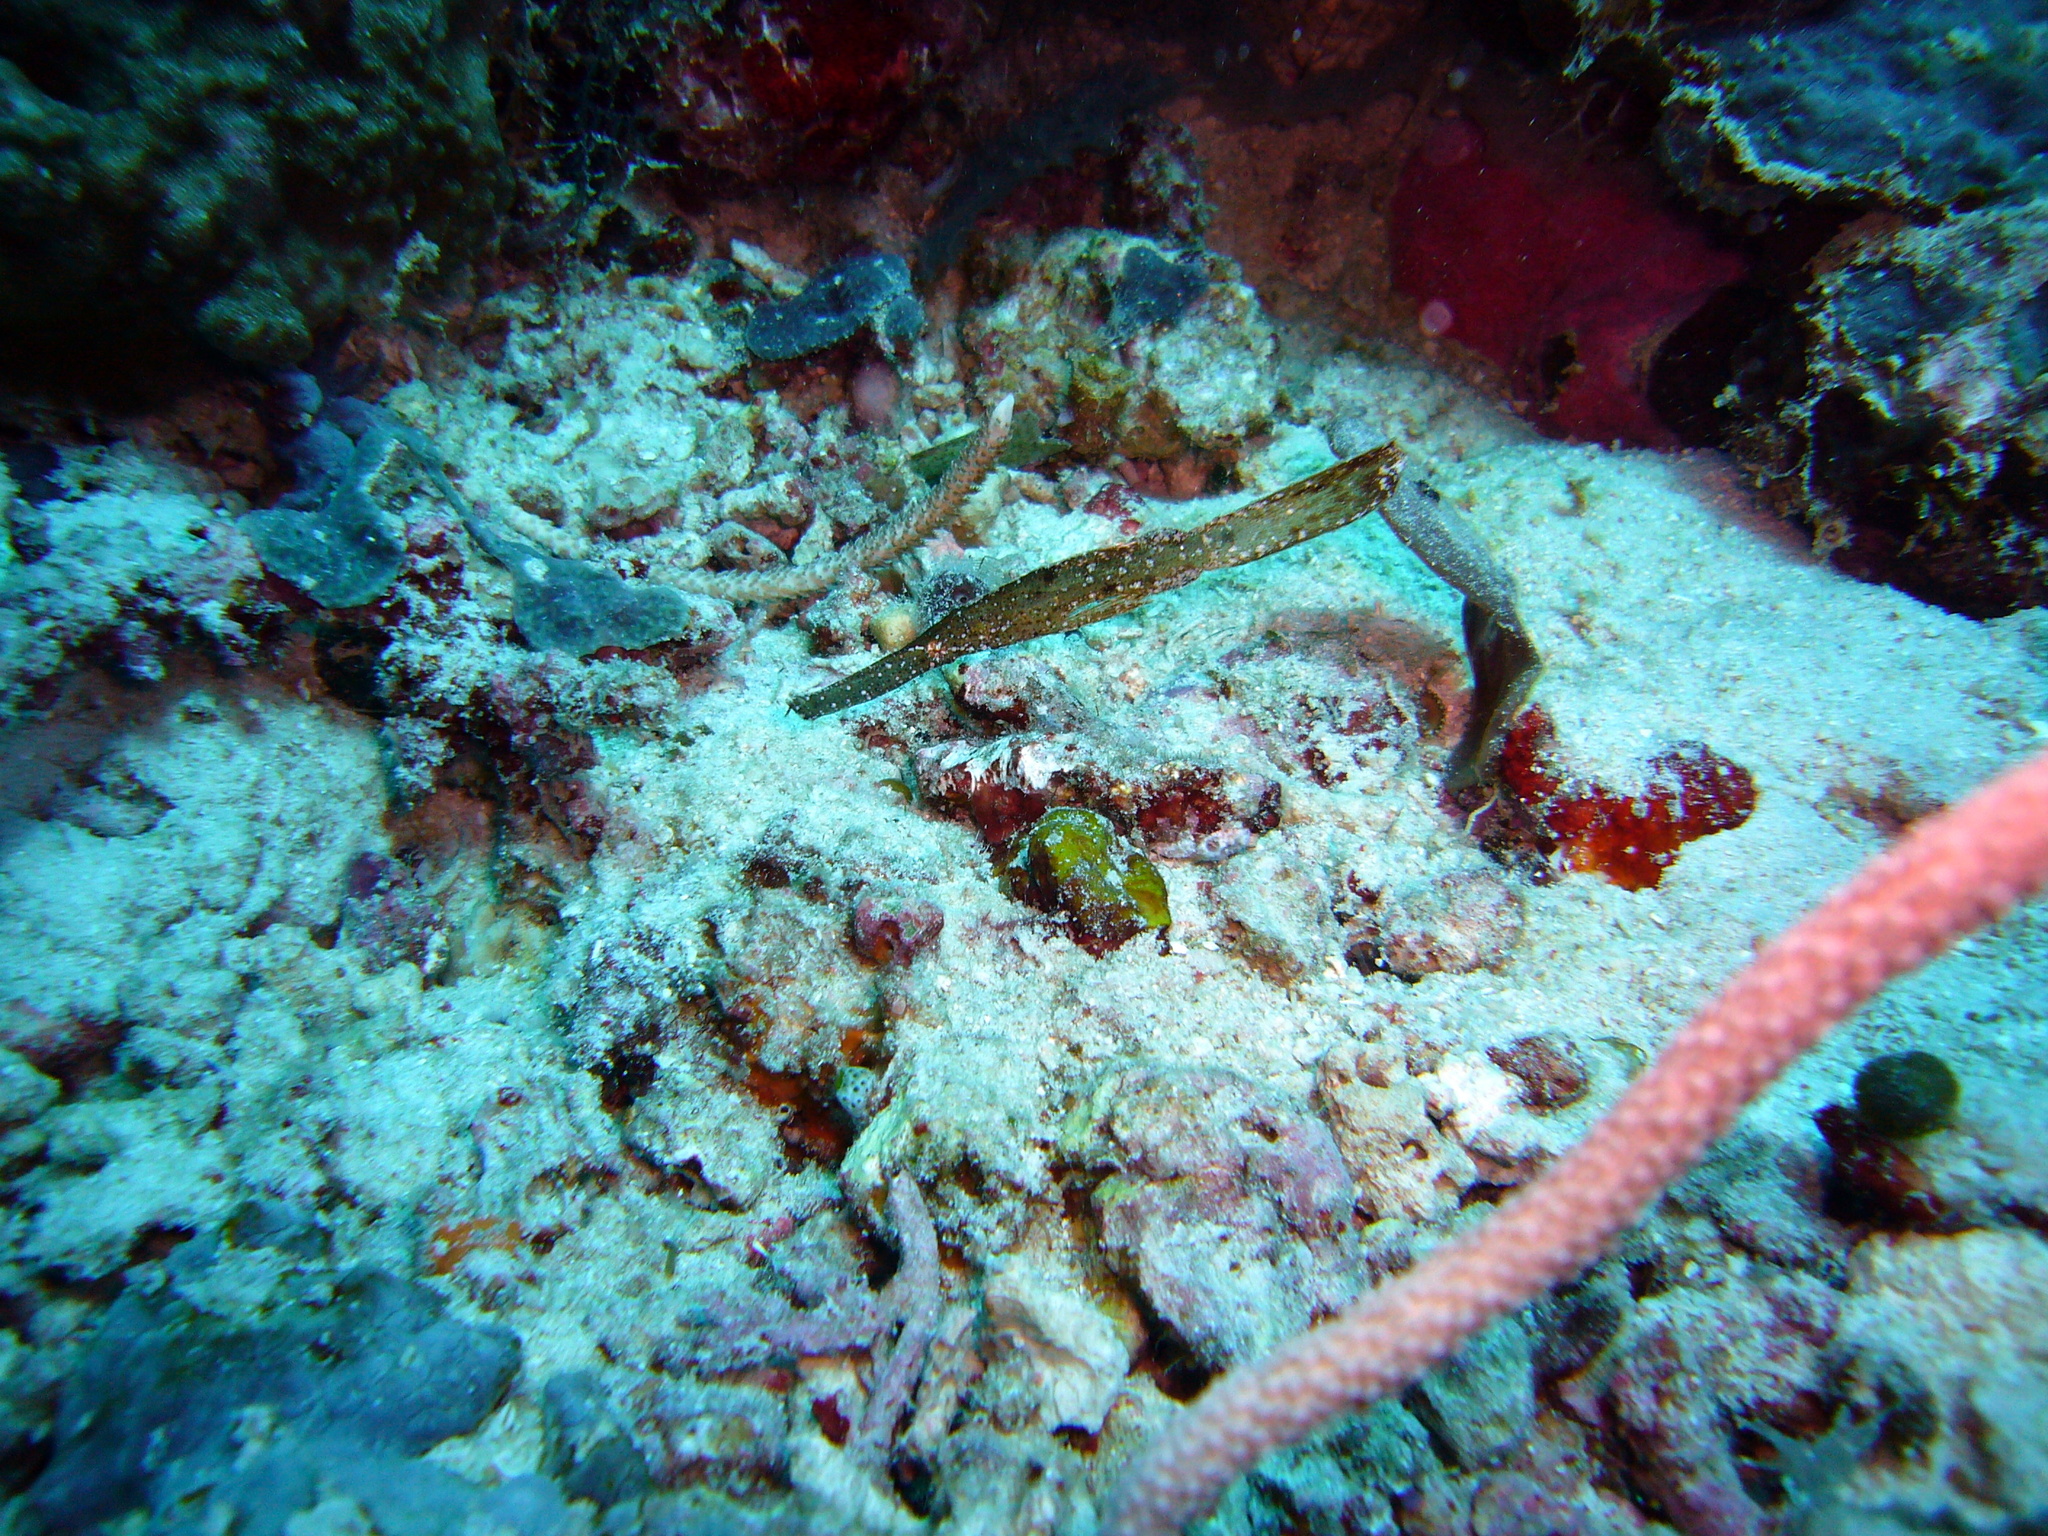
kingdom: Animalia
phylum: Chordata
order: Syngnathiformes
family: Solenostomidae
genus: Solenostomus
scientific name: Solenostomus cyanopterus
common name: Blue-finned ghost pipefish
